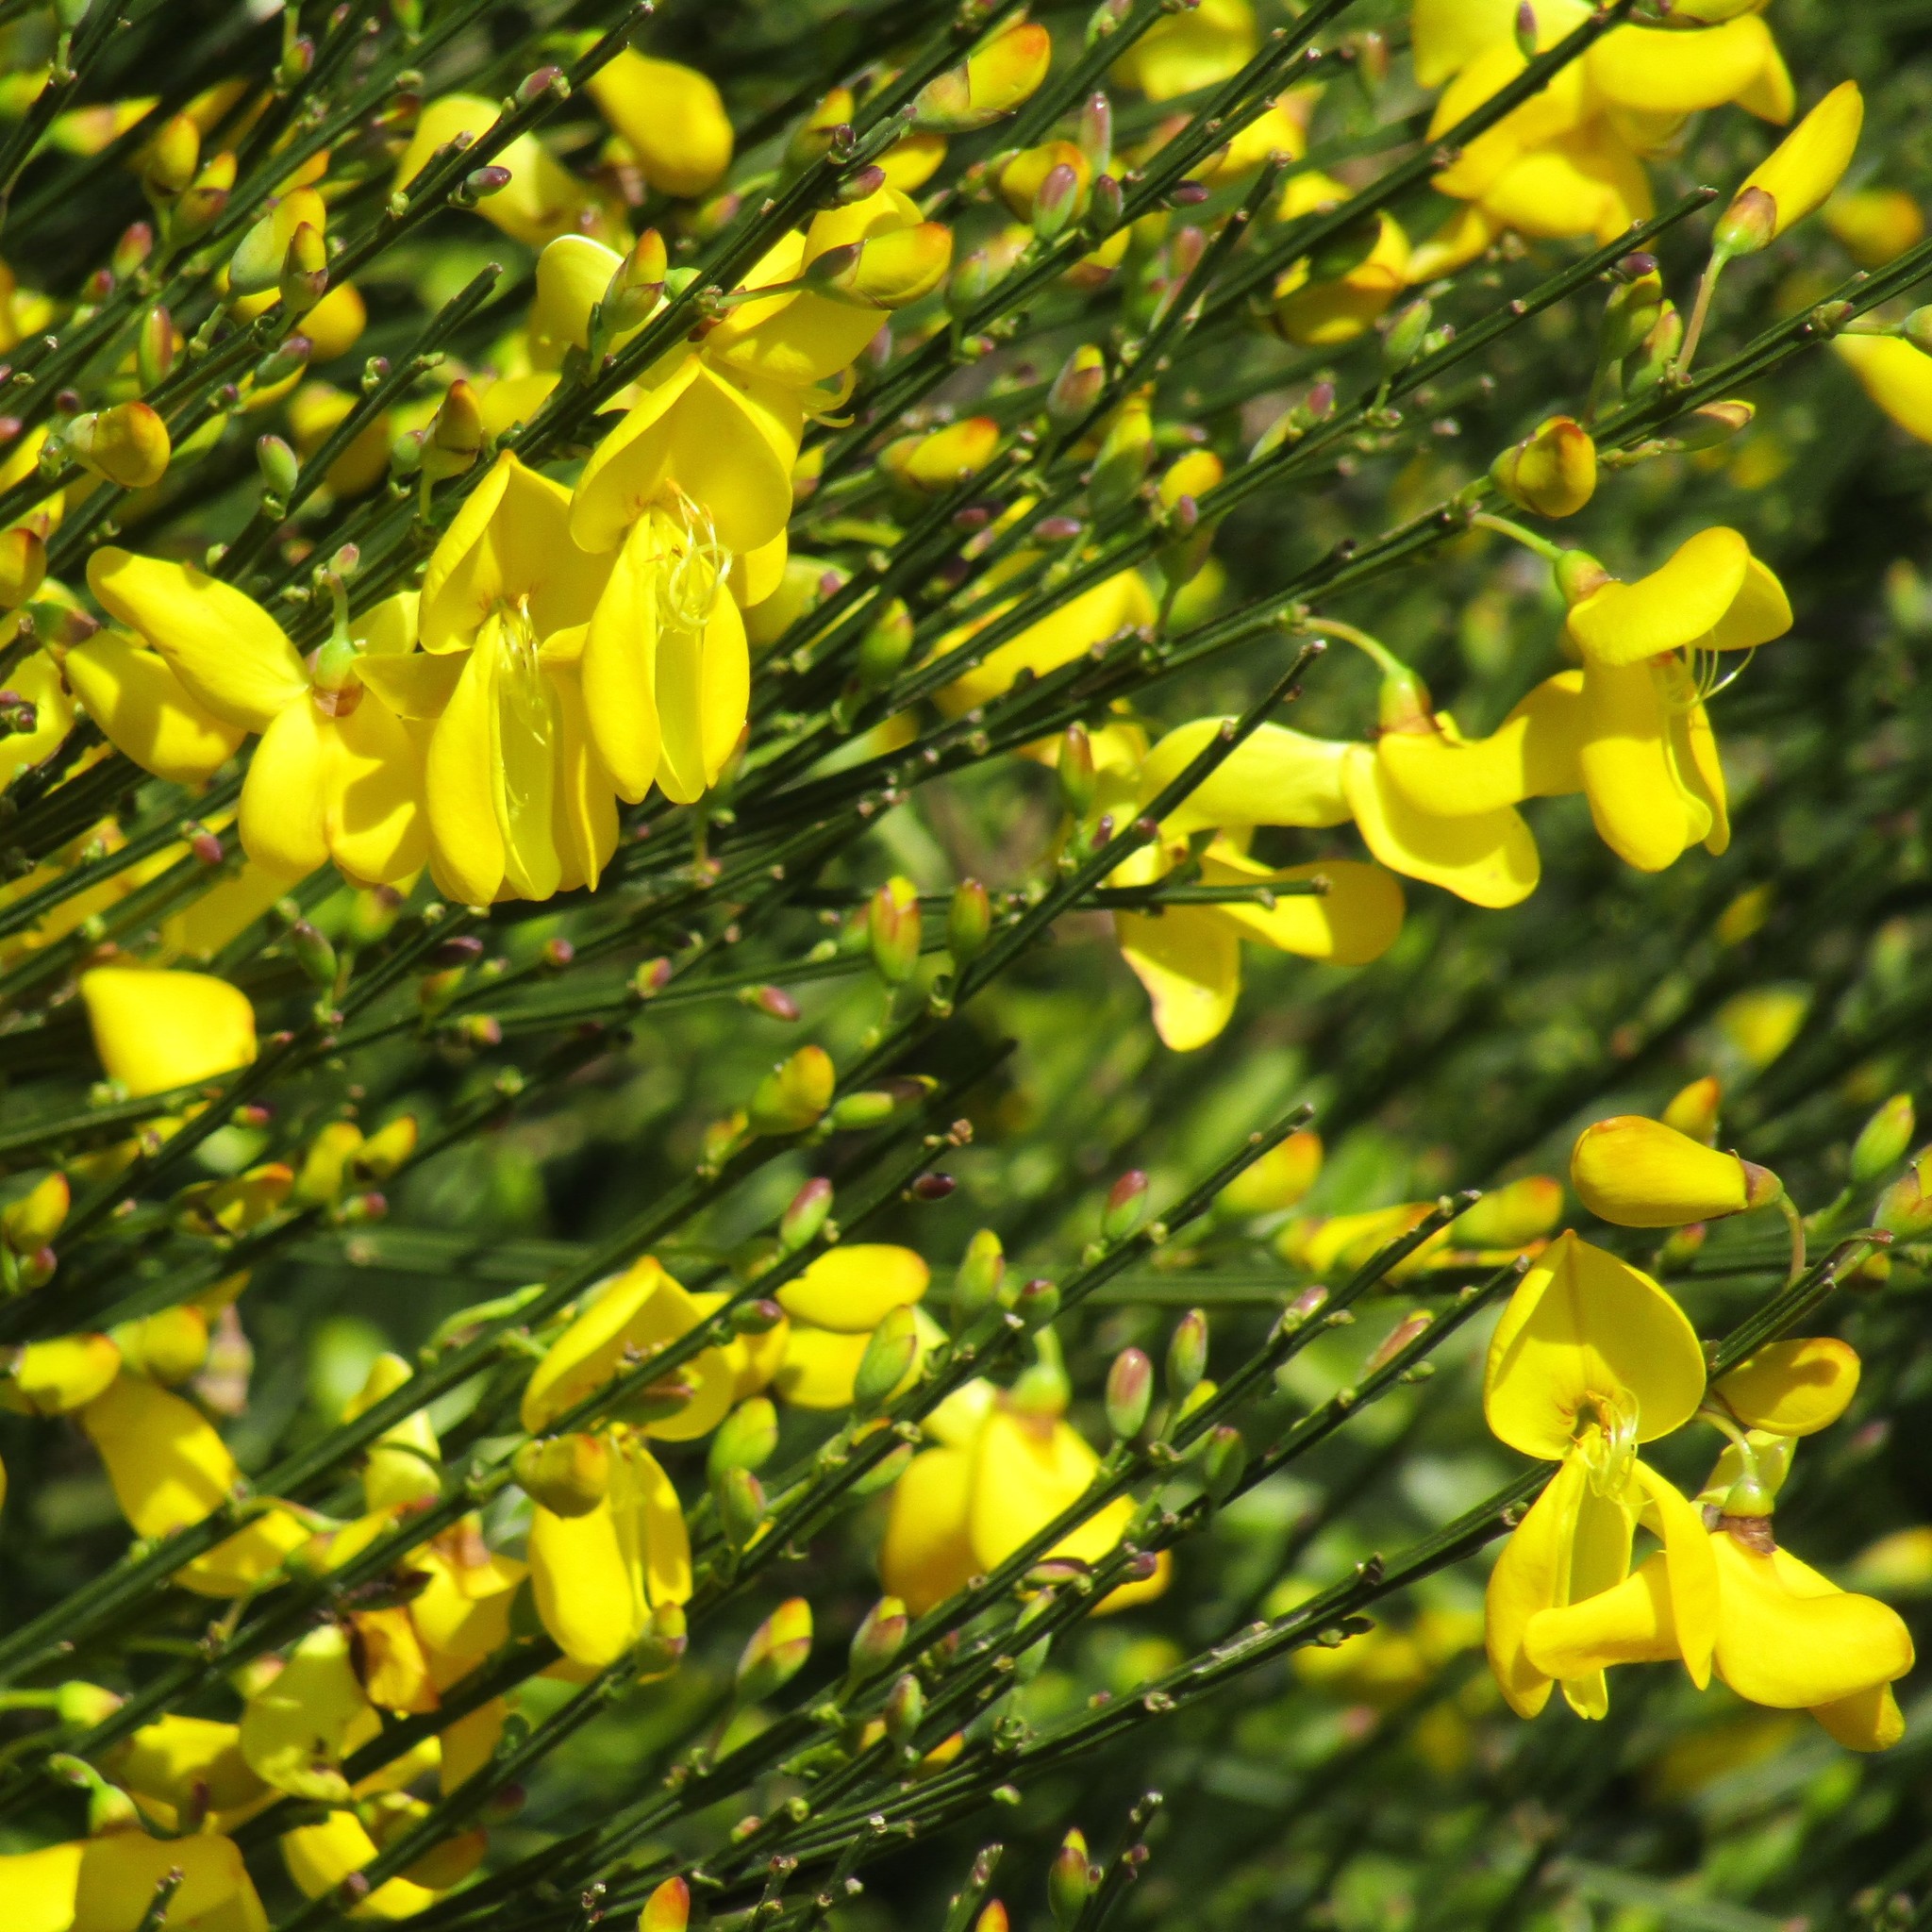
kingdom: Plantae
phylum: Tracheophyta
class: Magnoliopsida
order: Fabales
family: Fabaceae
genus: Cytisus
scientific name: Cytisus scoparius
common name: Scotch broom
